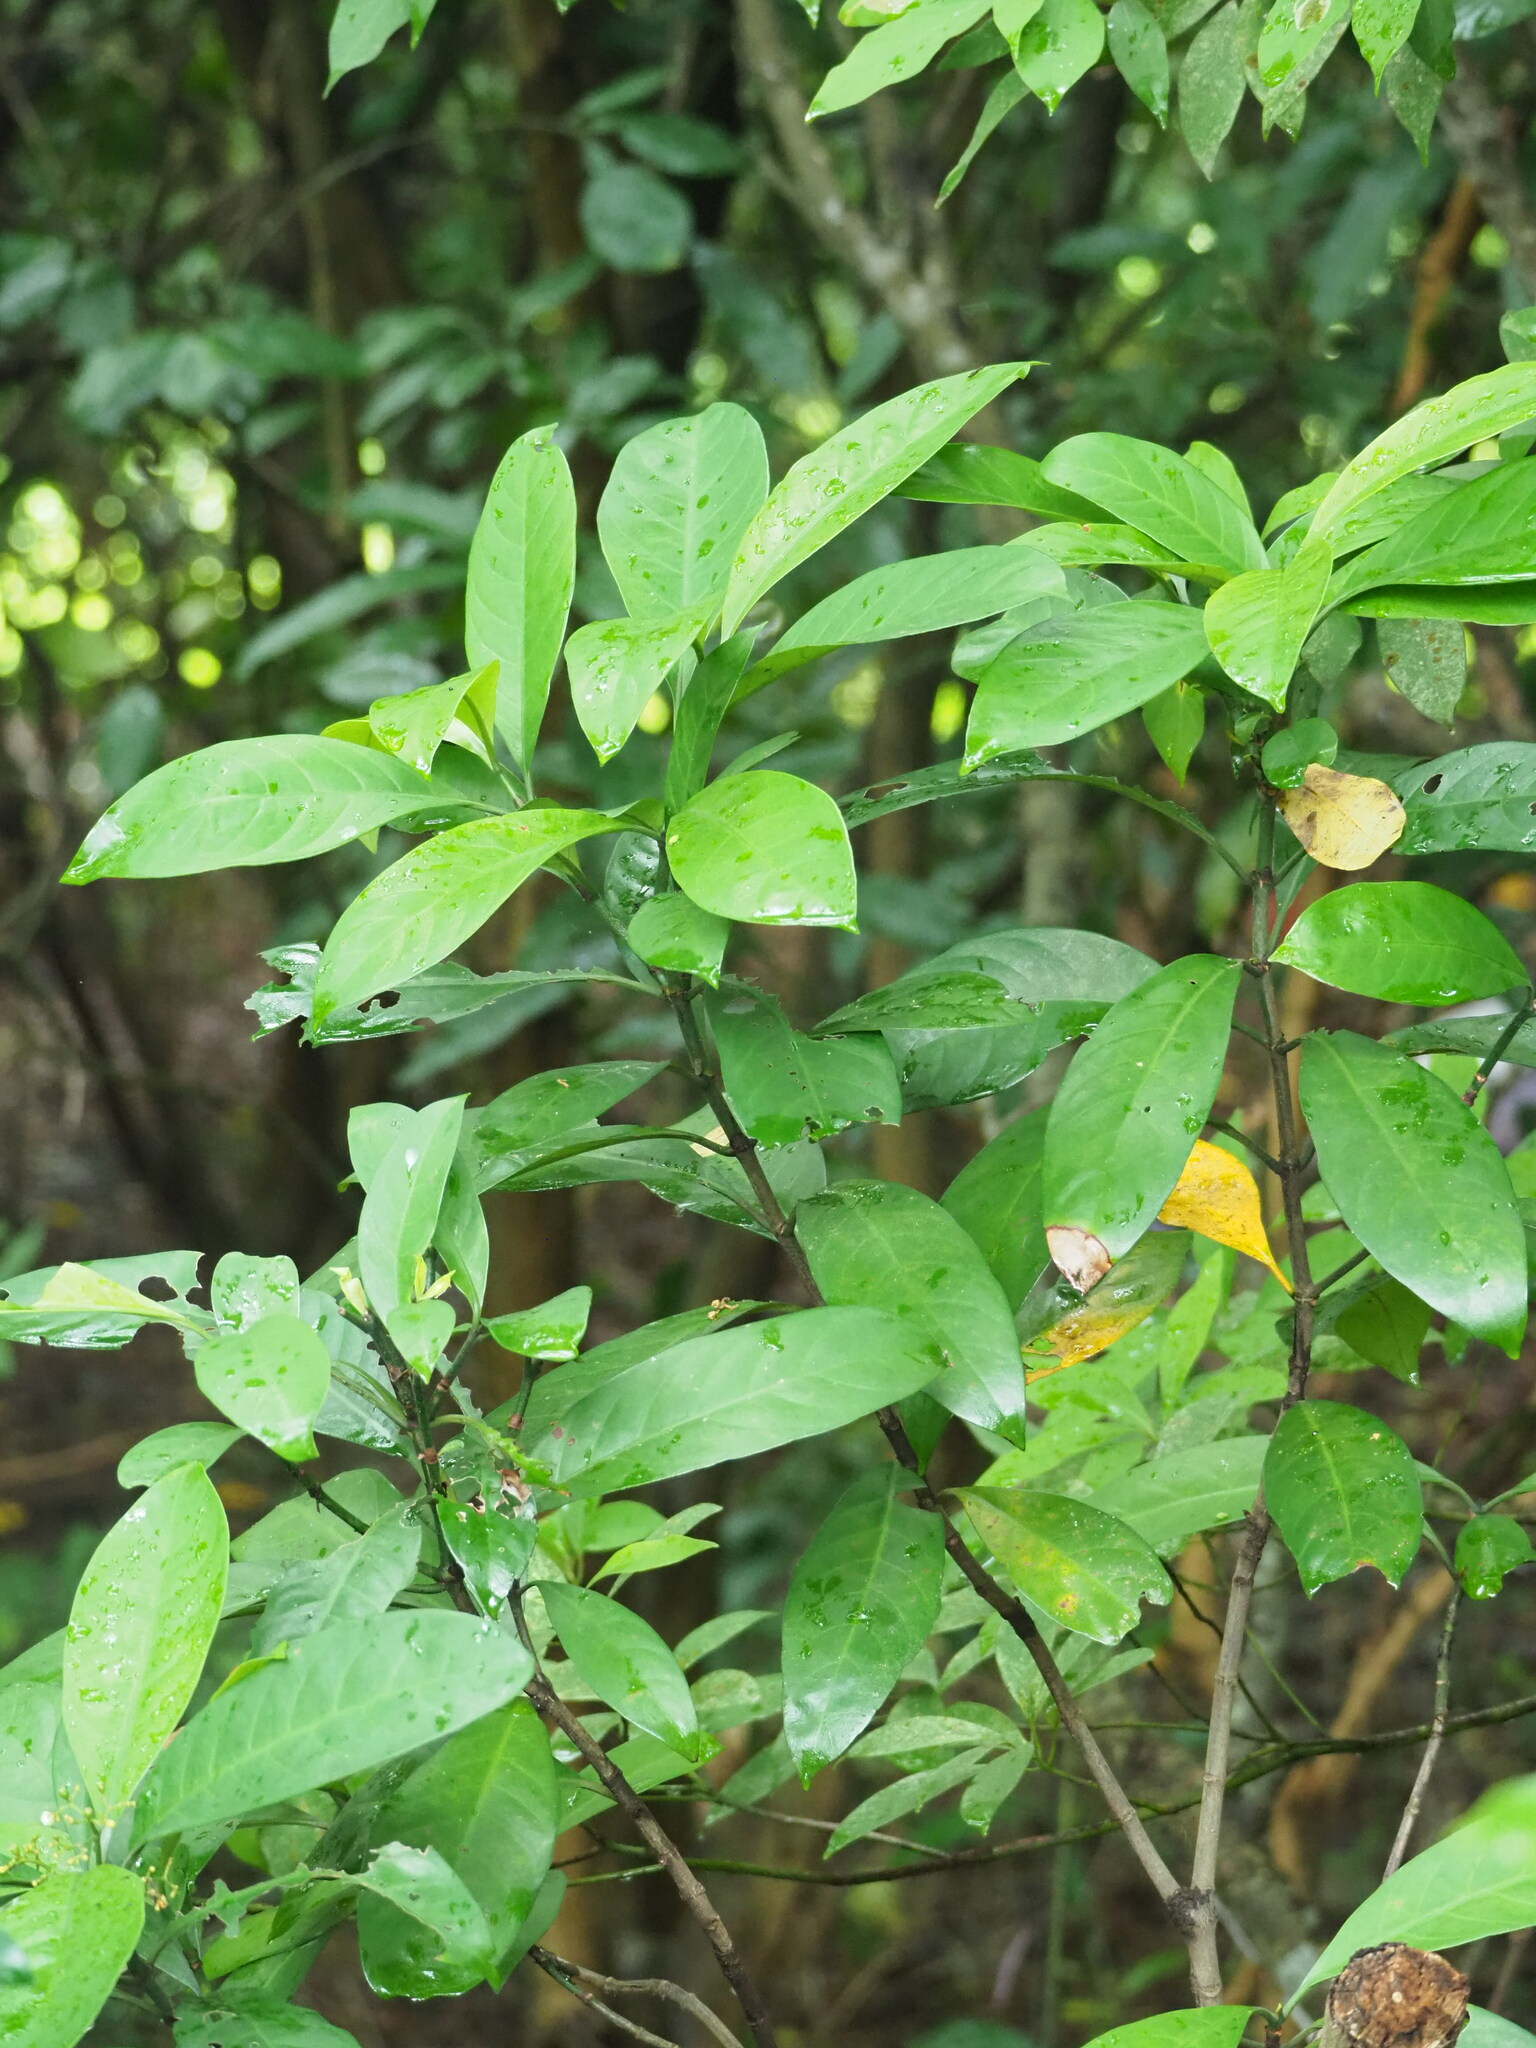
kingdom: Plantae
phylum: Tracheophyta
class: Magnoliopsida
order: Gentianales
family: Rubiaceae
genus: Psychotria
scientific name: Psychotria asiatica
